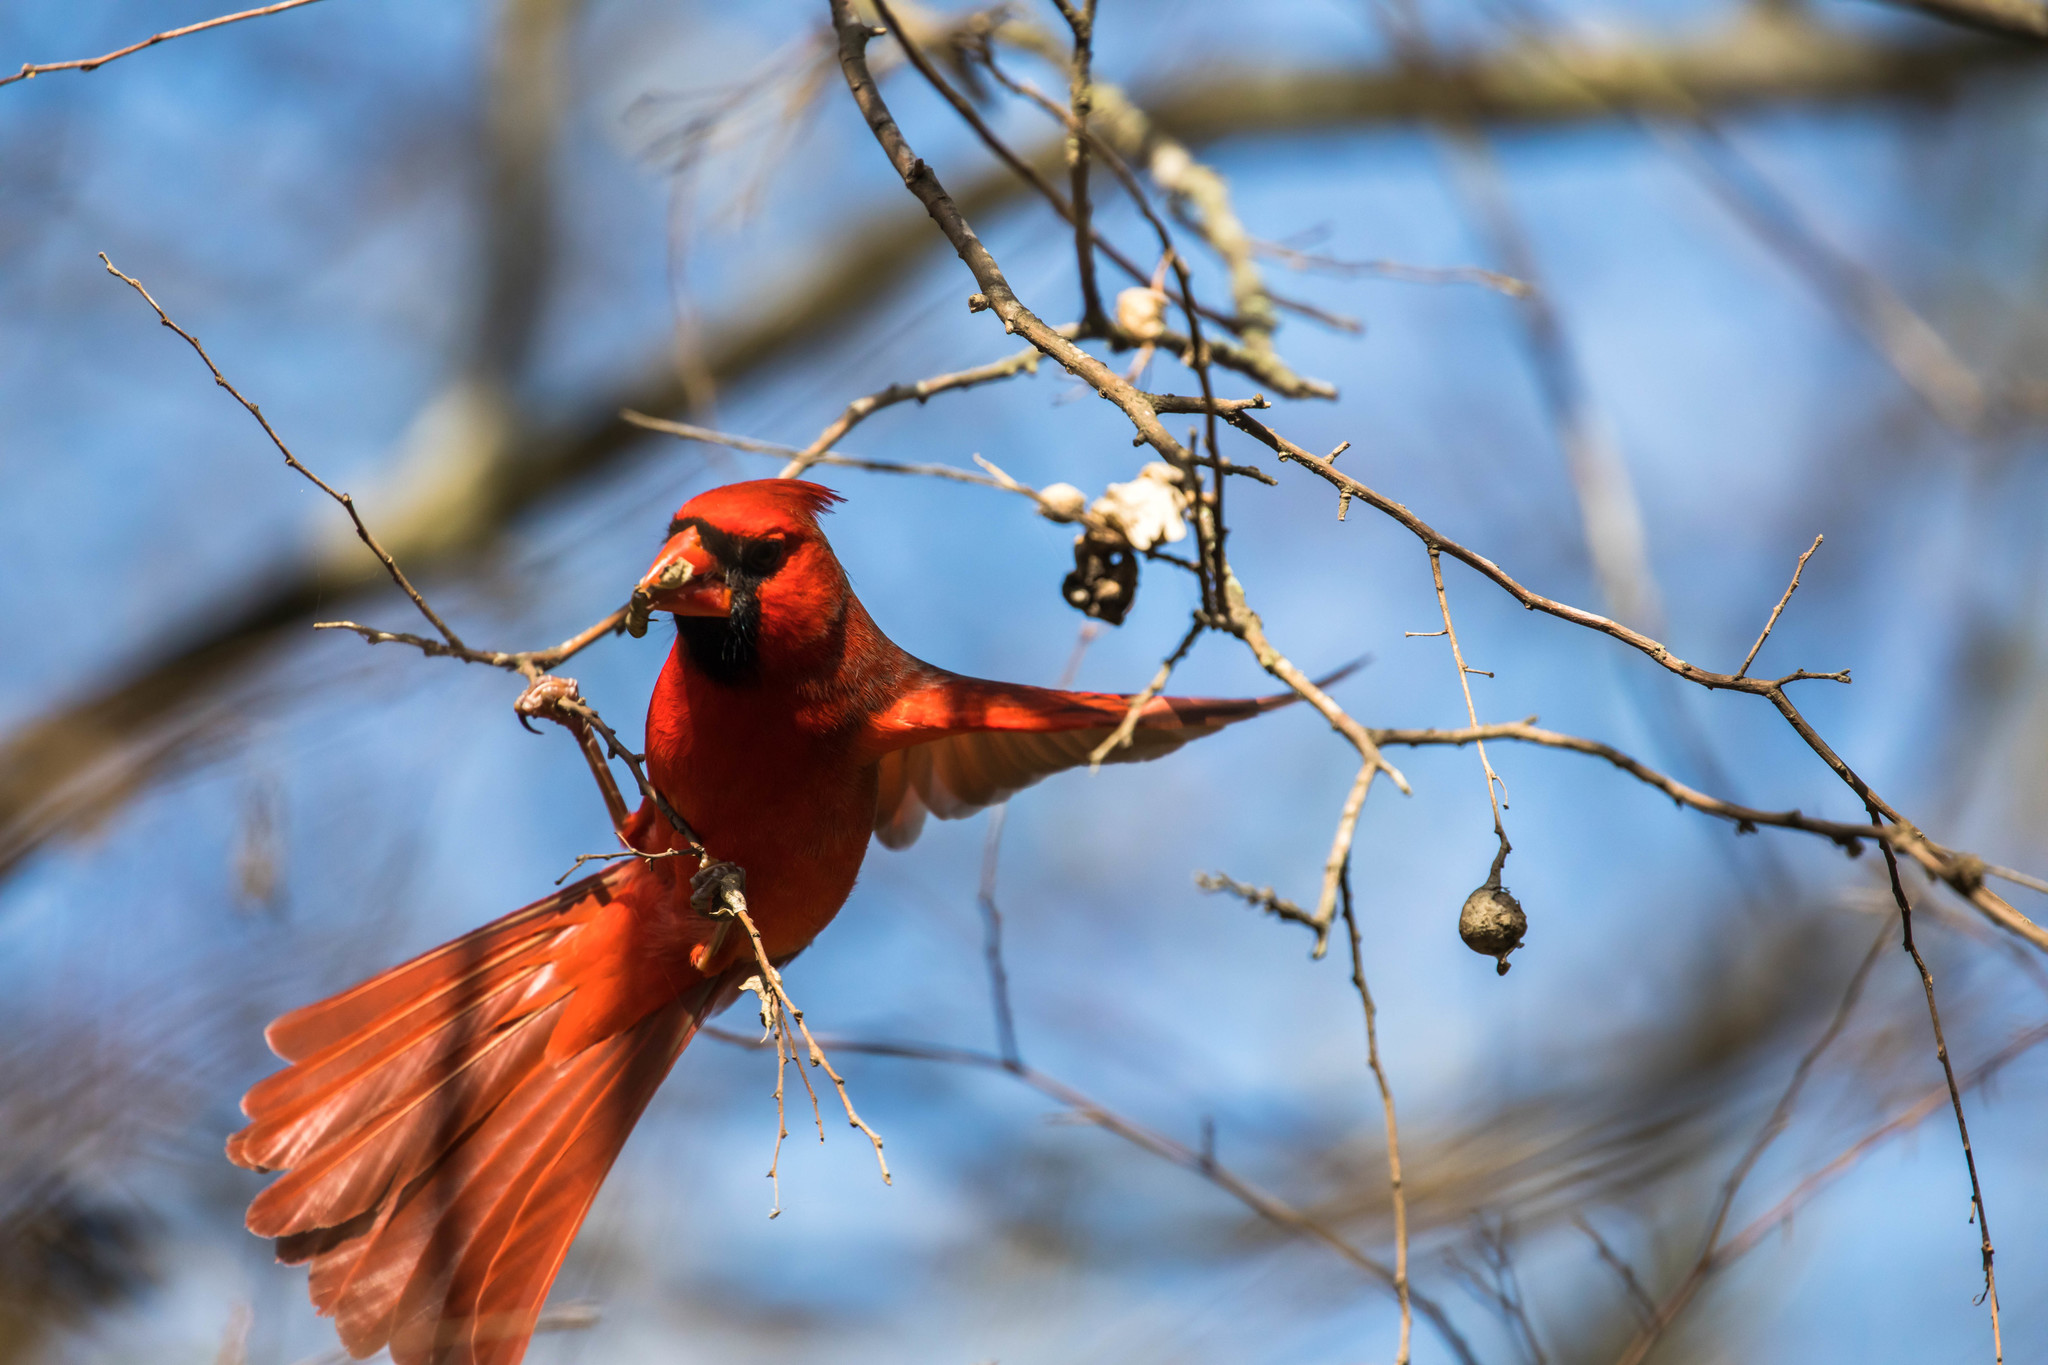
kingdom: Animalia
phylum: Chordata
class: Aves
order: Passeriformes
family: Cardinalidae
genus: Cardinalis
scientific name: Cardinalis cardinalis
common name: Northern cardinal
